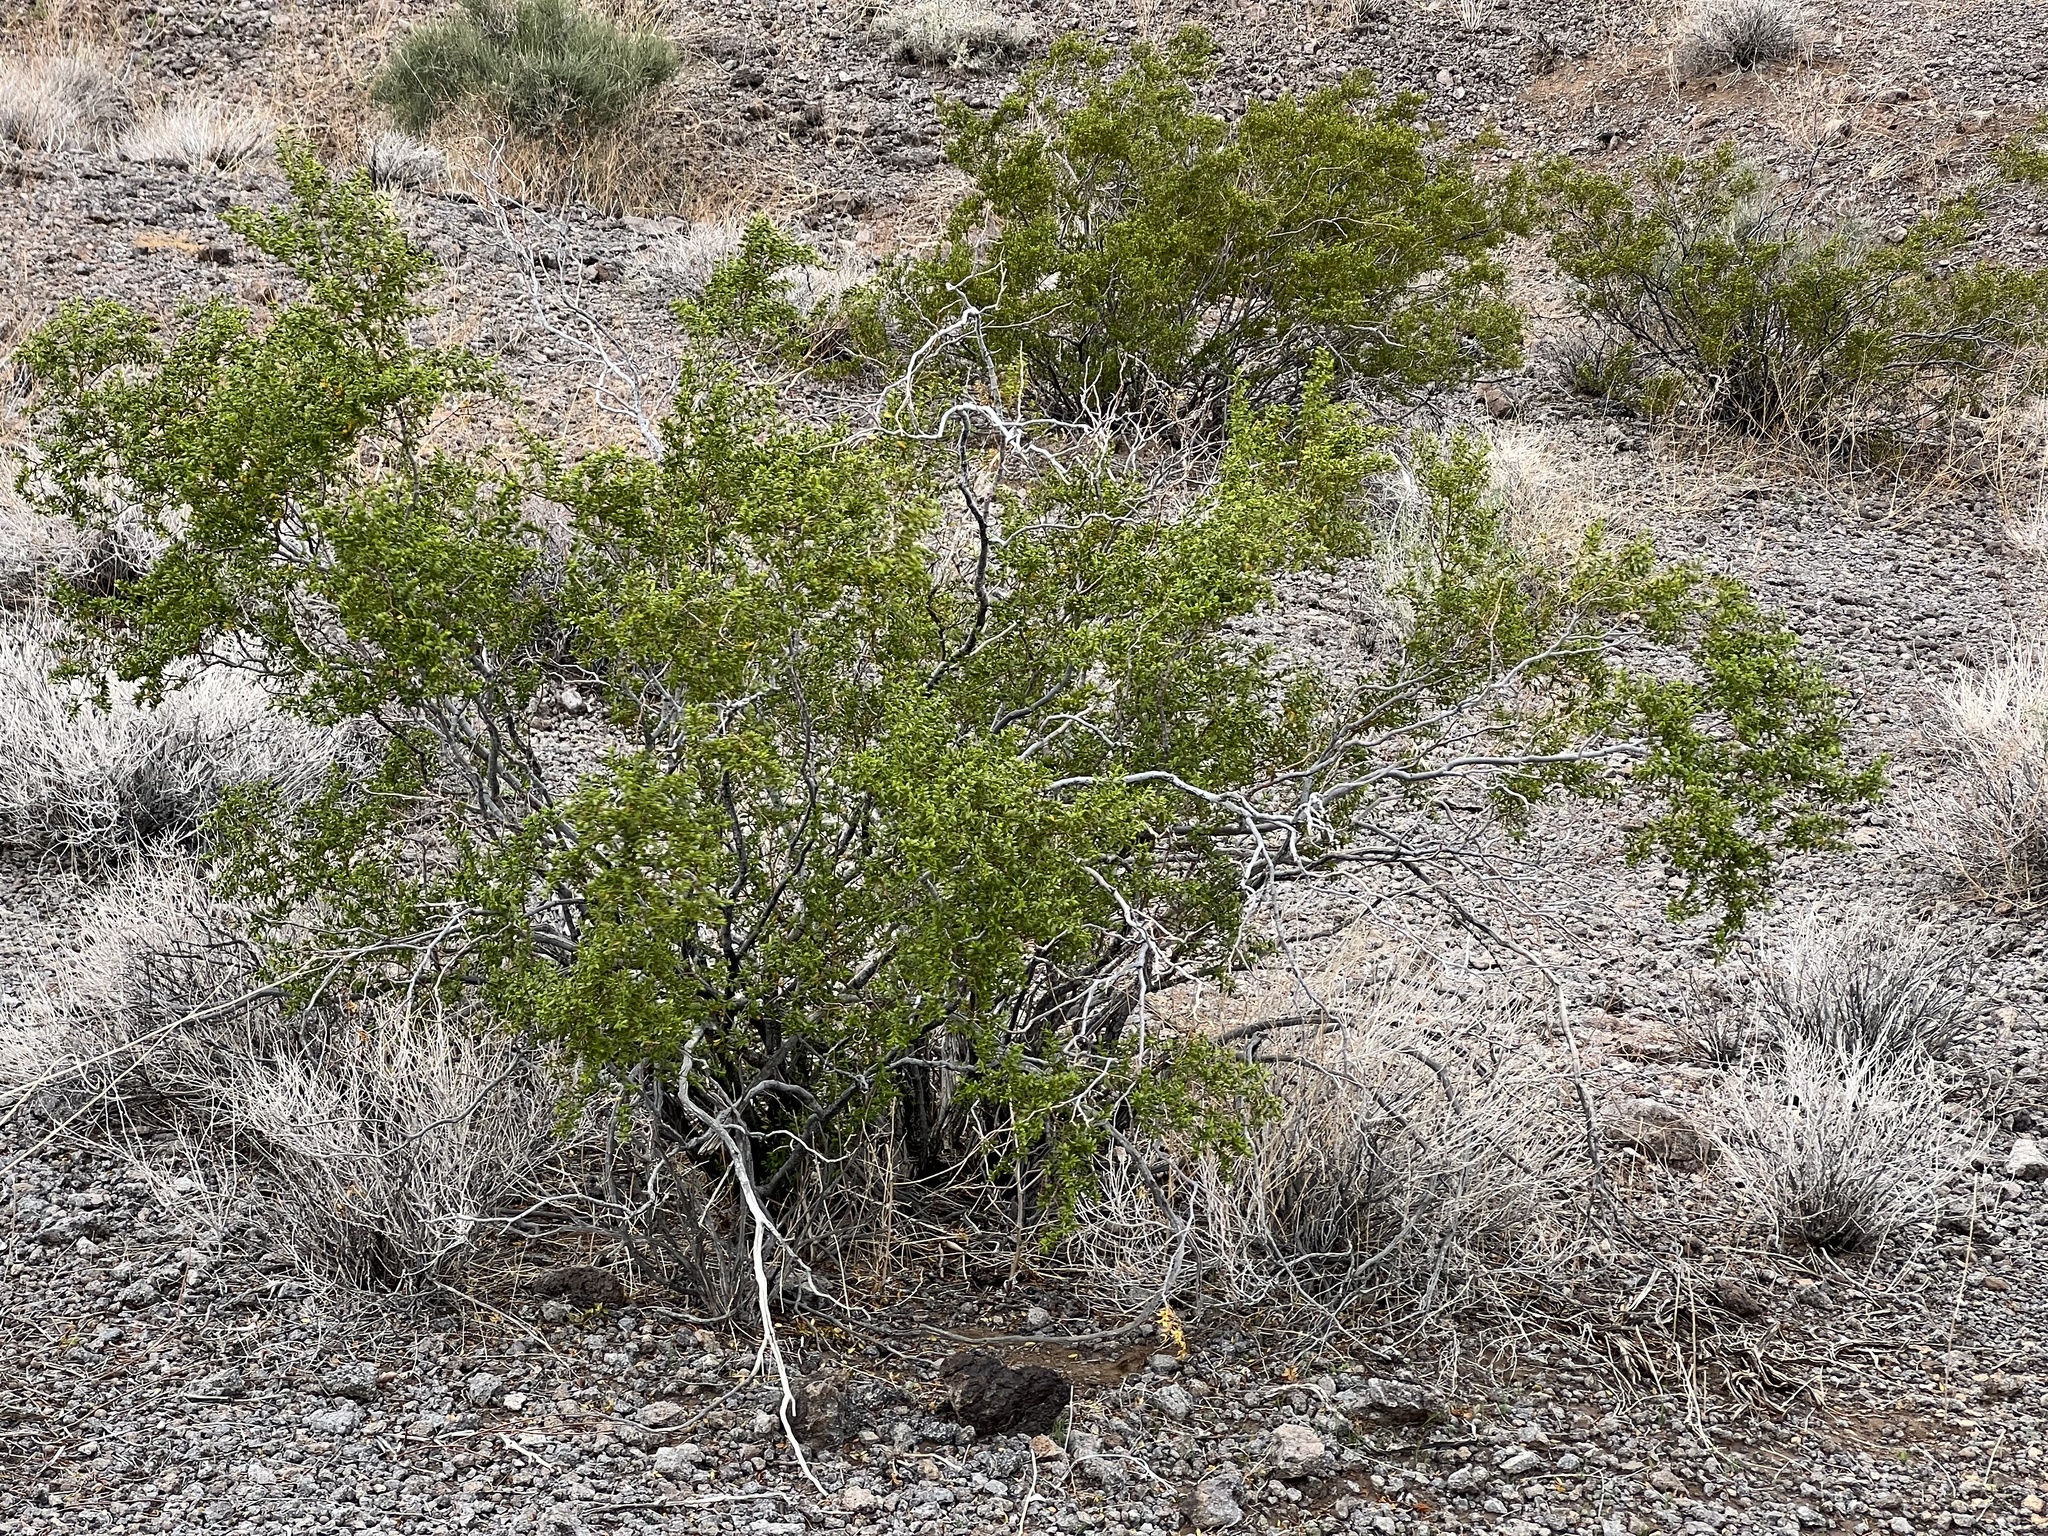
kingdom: Plantae
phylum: Tracheophyta
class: Magnoliopsida
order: Zygophyllales
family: Zygophyllaceae
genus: Larrea
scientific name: Larrea tridentata
